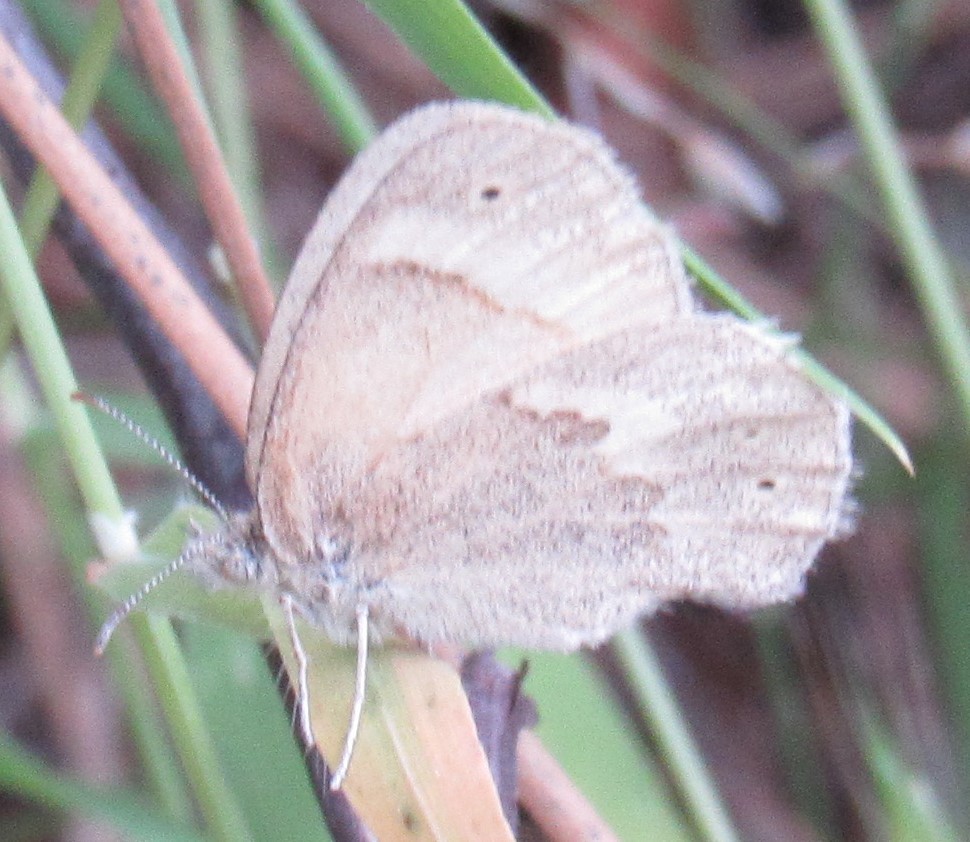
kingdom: Animalia
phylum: Arthropoda
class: Insecta
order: Lepidoptera
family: Nymphalidae
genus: Coenonympha
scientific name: Coenonympha california
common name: Common ringlet
